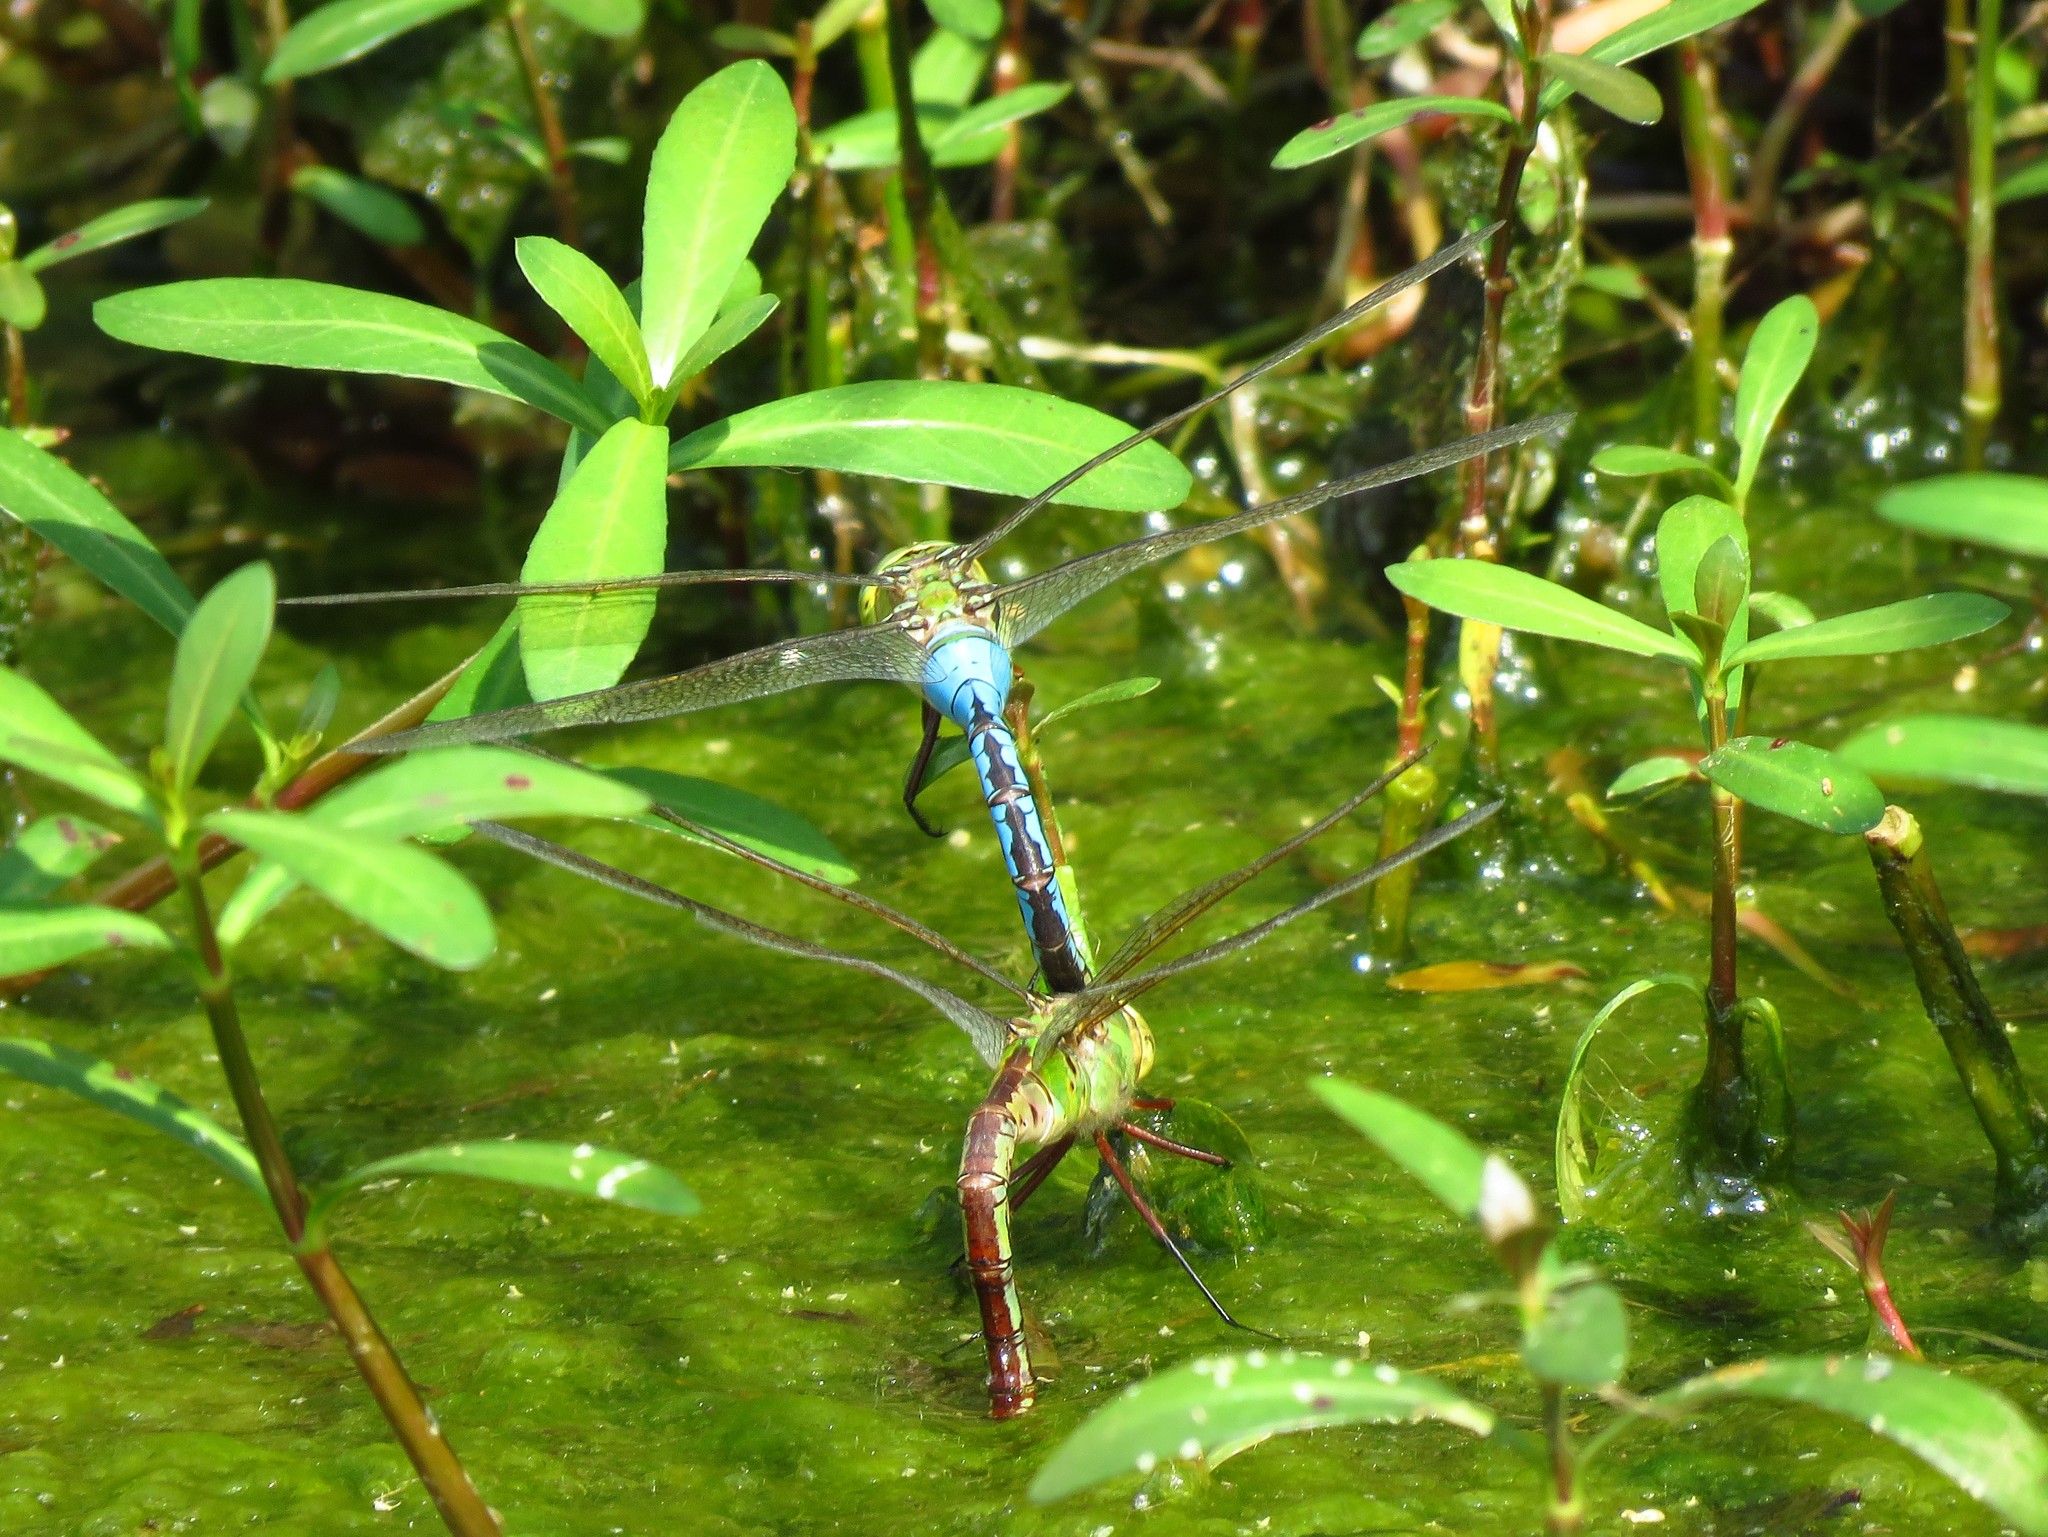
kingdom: Animalia
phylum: Arthropoda
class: Insecta
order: Odonata
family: Aeshnidae
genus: Anax
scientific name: Anax junius
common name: Common green darner
